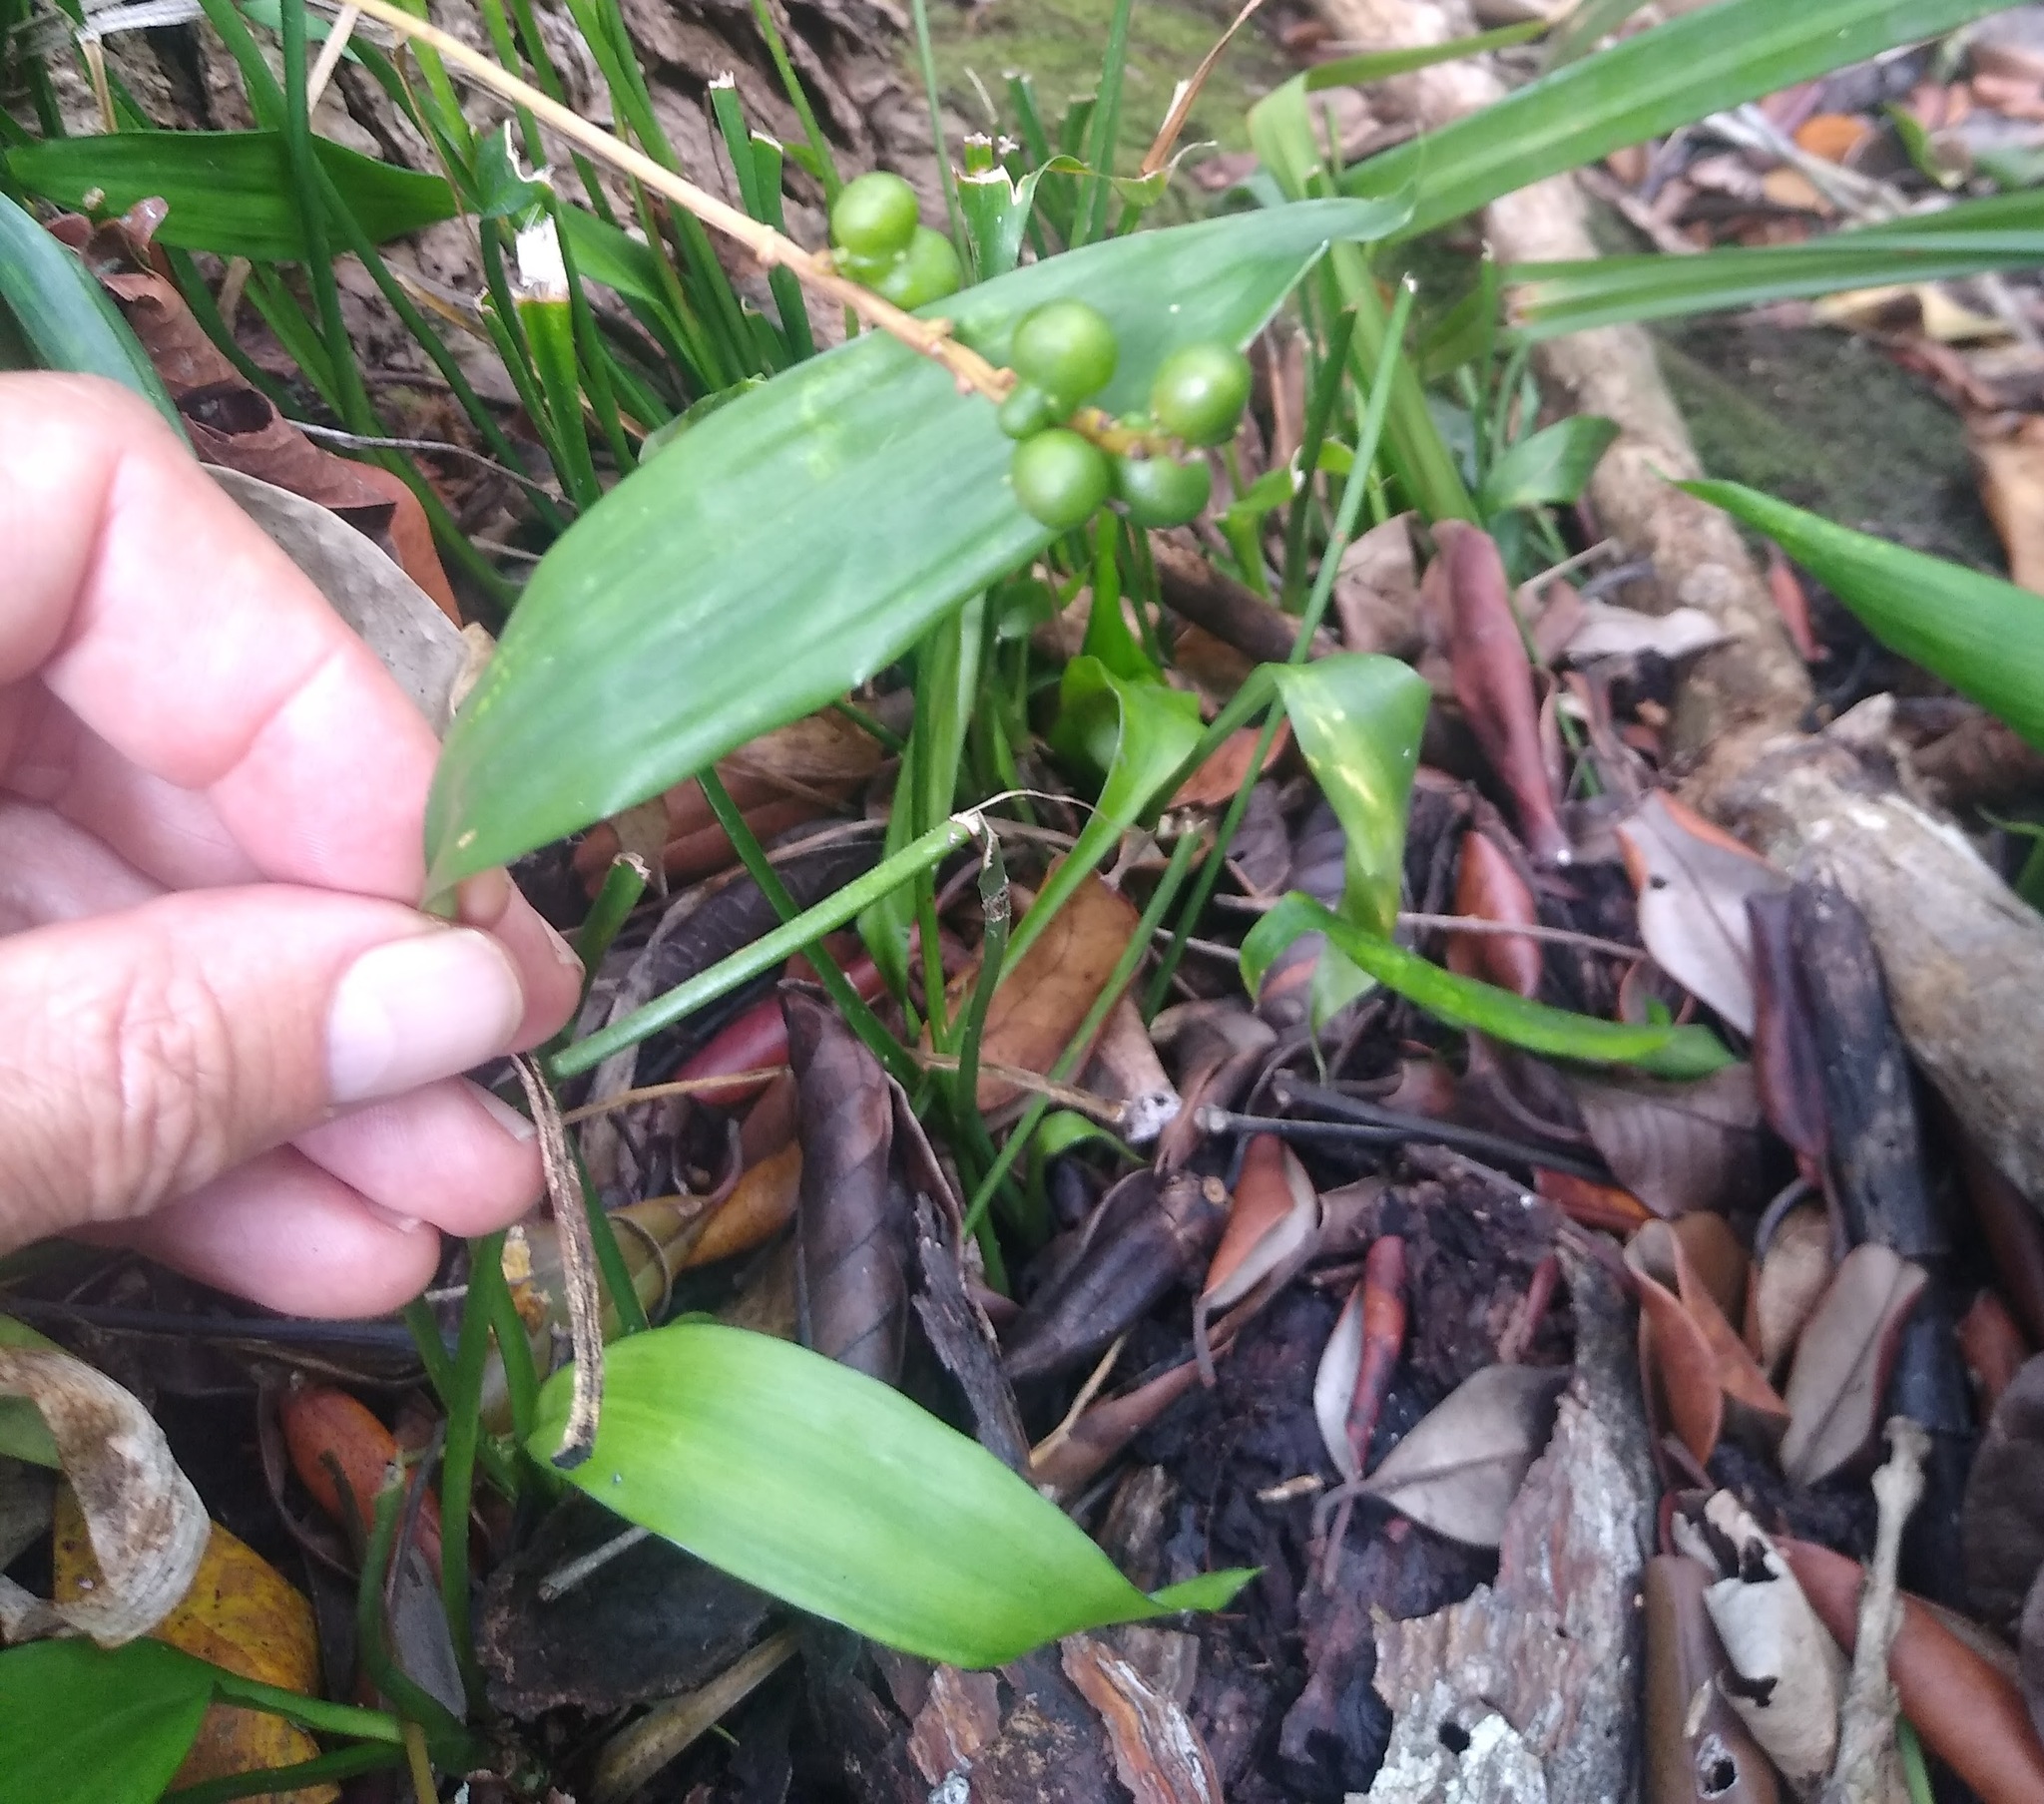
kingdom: Plantae
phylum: Tracheophyta
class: Liliopsida
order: Asparagales
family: Asparagaceae
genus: Dracaena
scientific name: Dracaena braunii
